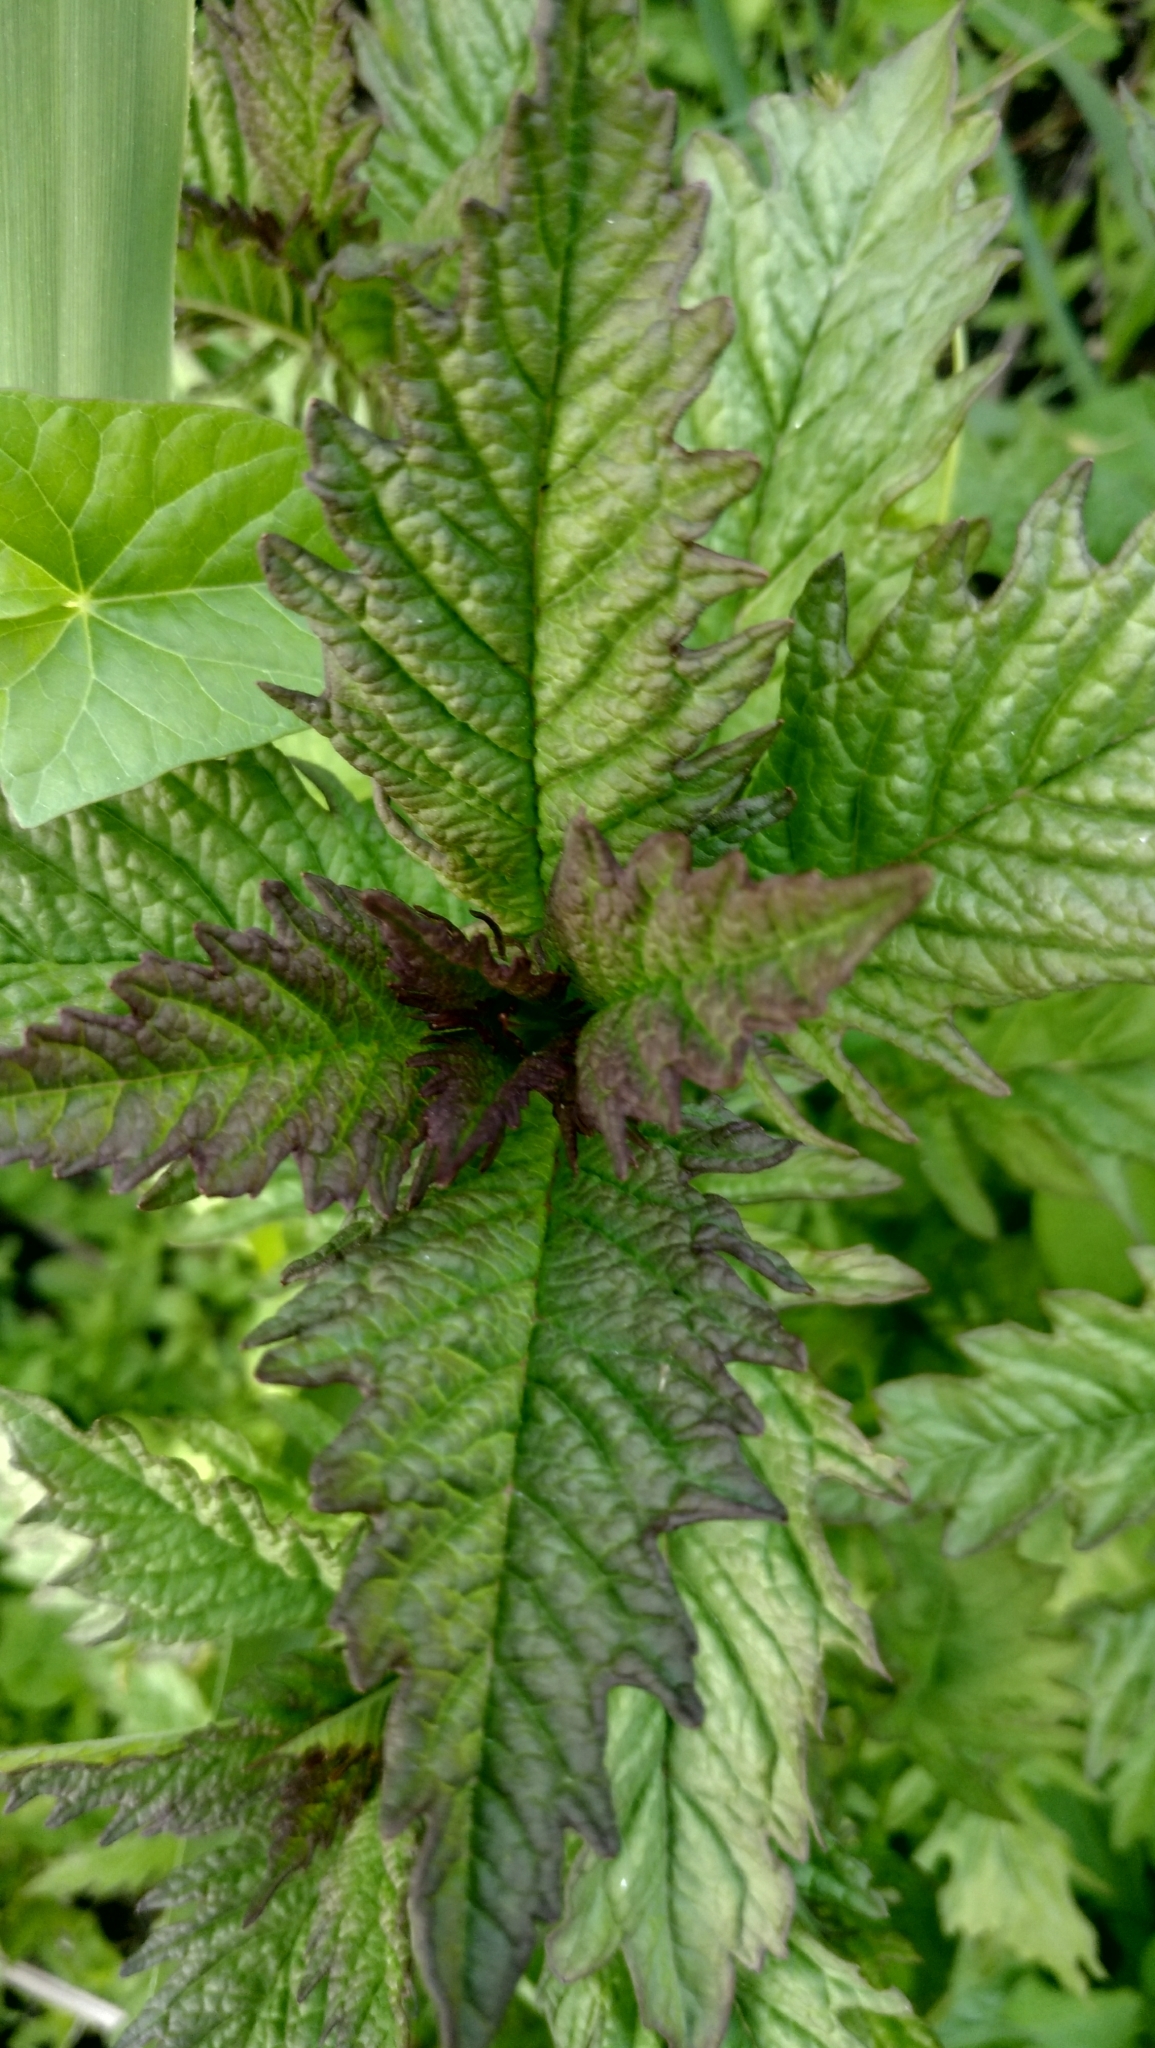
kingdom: Plantae
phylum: Tracheophyta
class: Magnoliopsida
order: Lamiales
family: Lamiaceae
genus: Lycopus
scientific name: Lycopus europaeus
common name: European bugleweed
